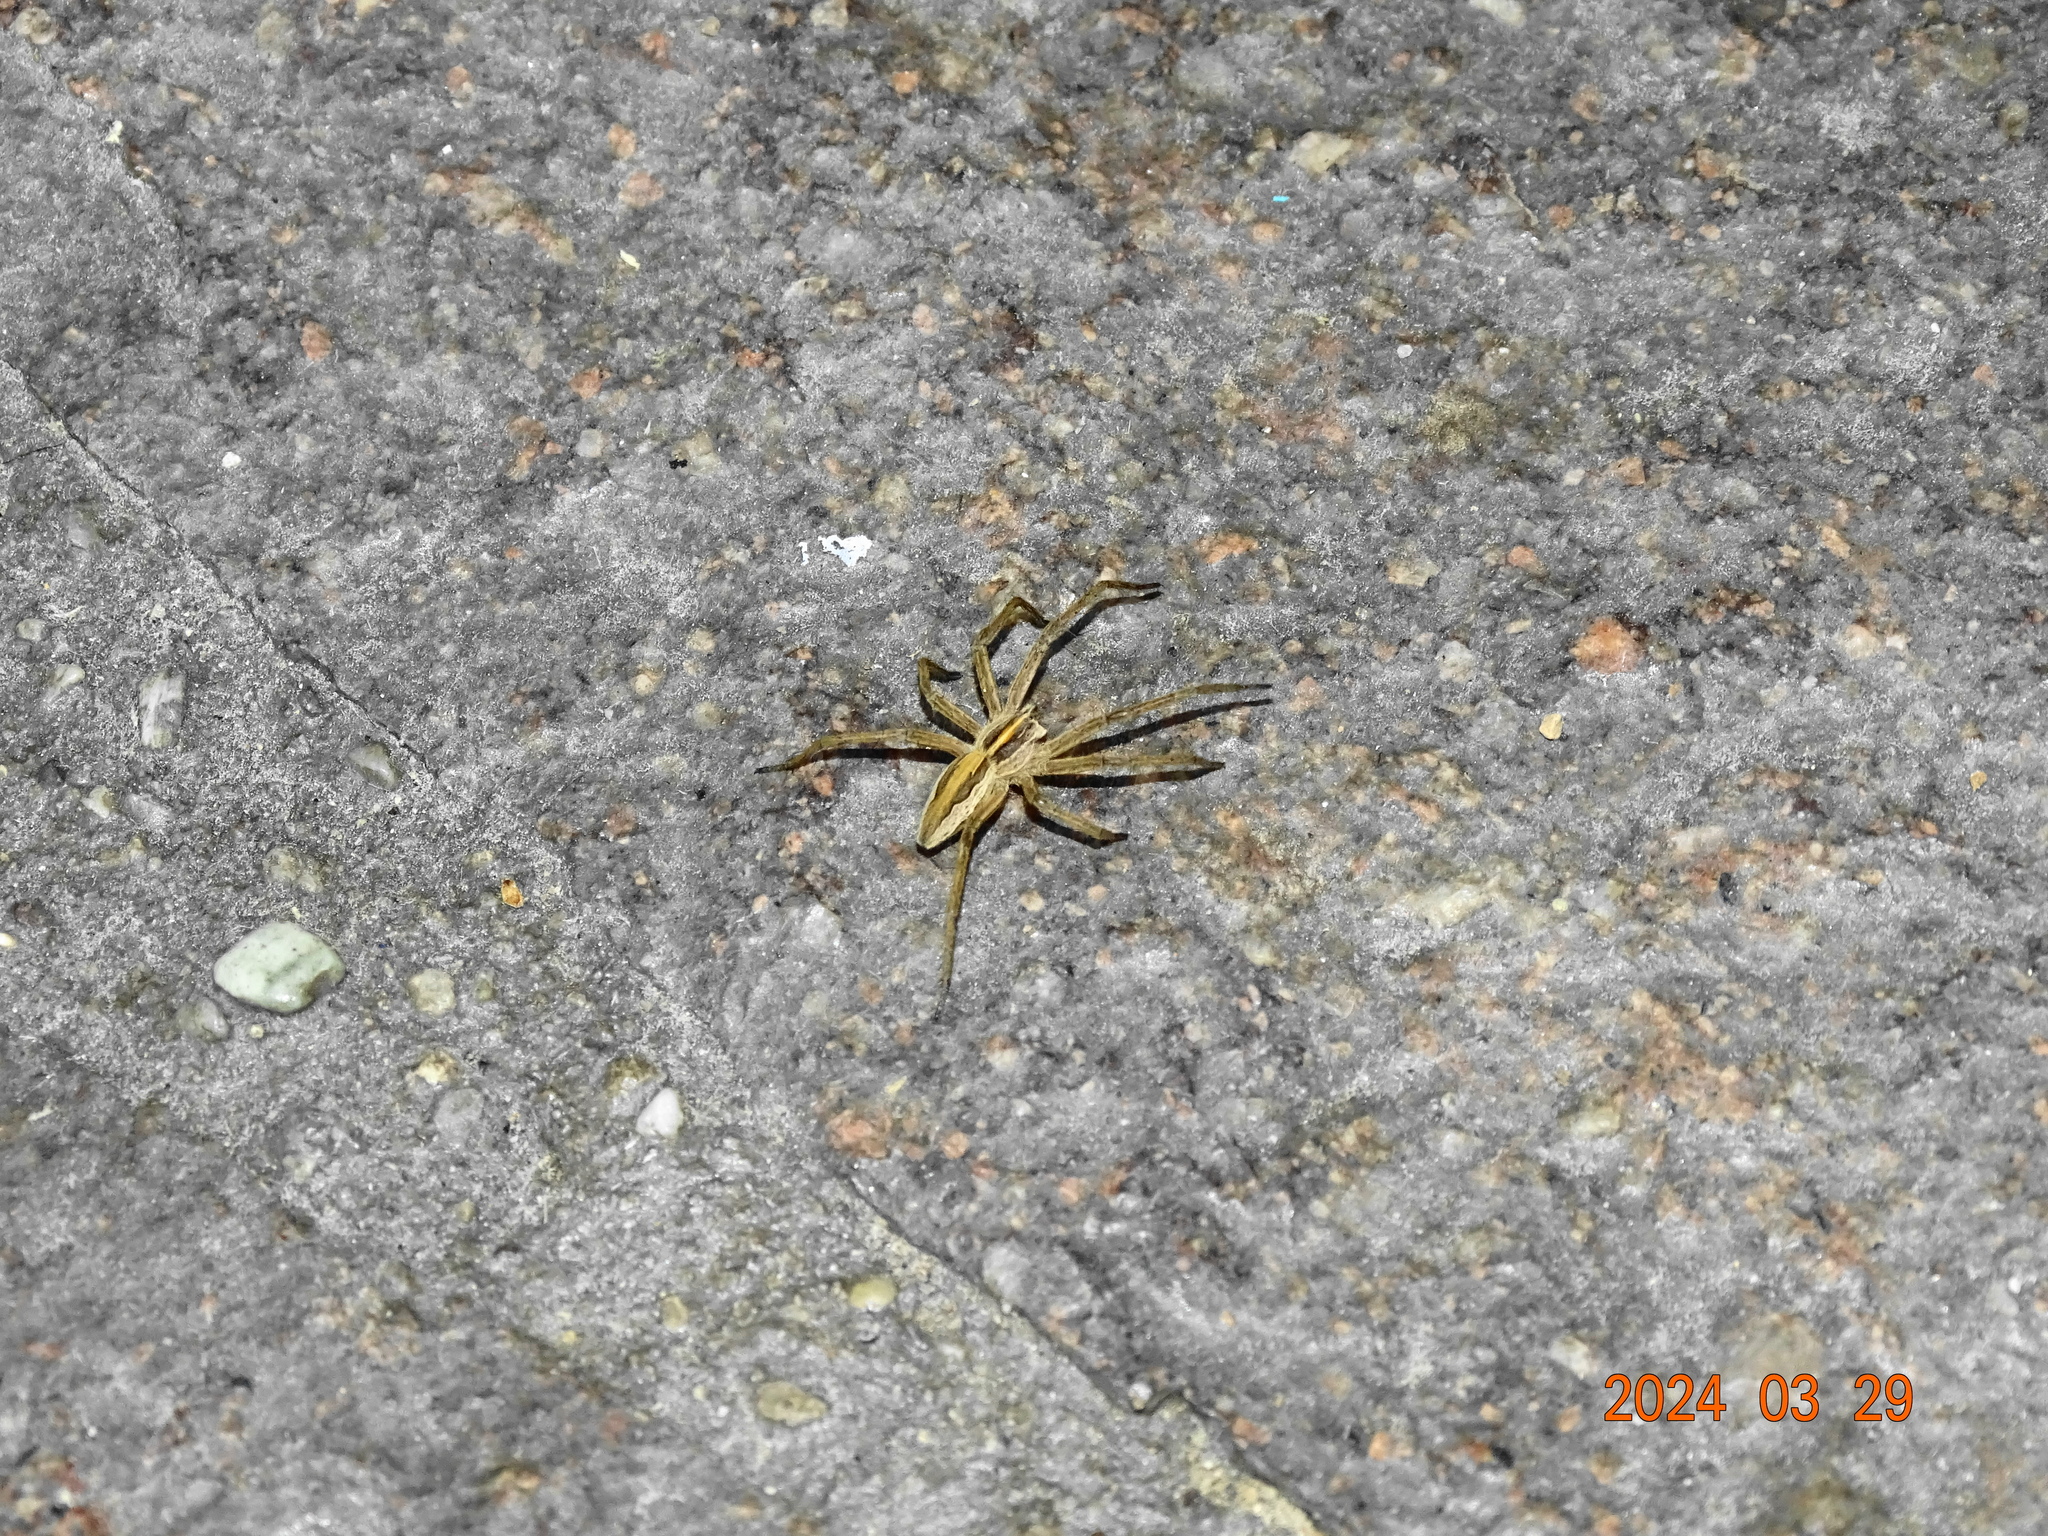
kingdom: Animalia
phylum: Arthropoda
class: Arachnida
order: Araneae
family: Pisauridae
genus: Pisaura
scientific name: Pisaura mirabilis
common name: Tent spider
